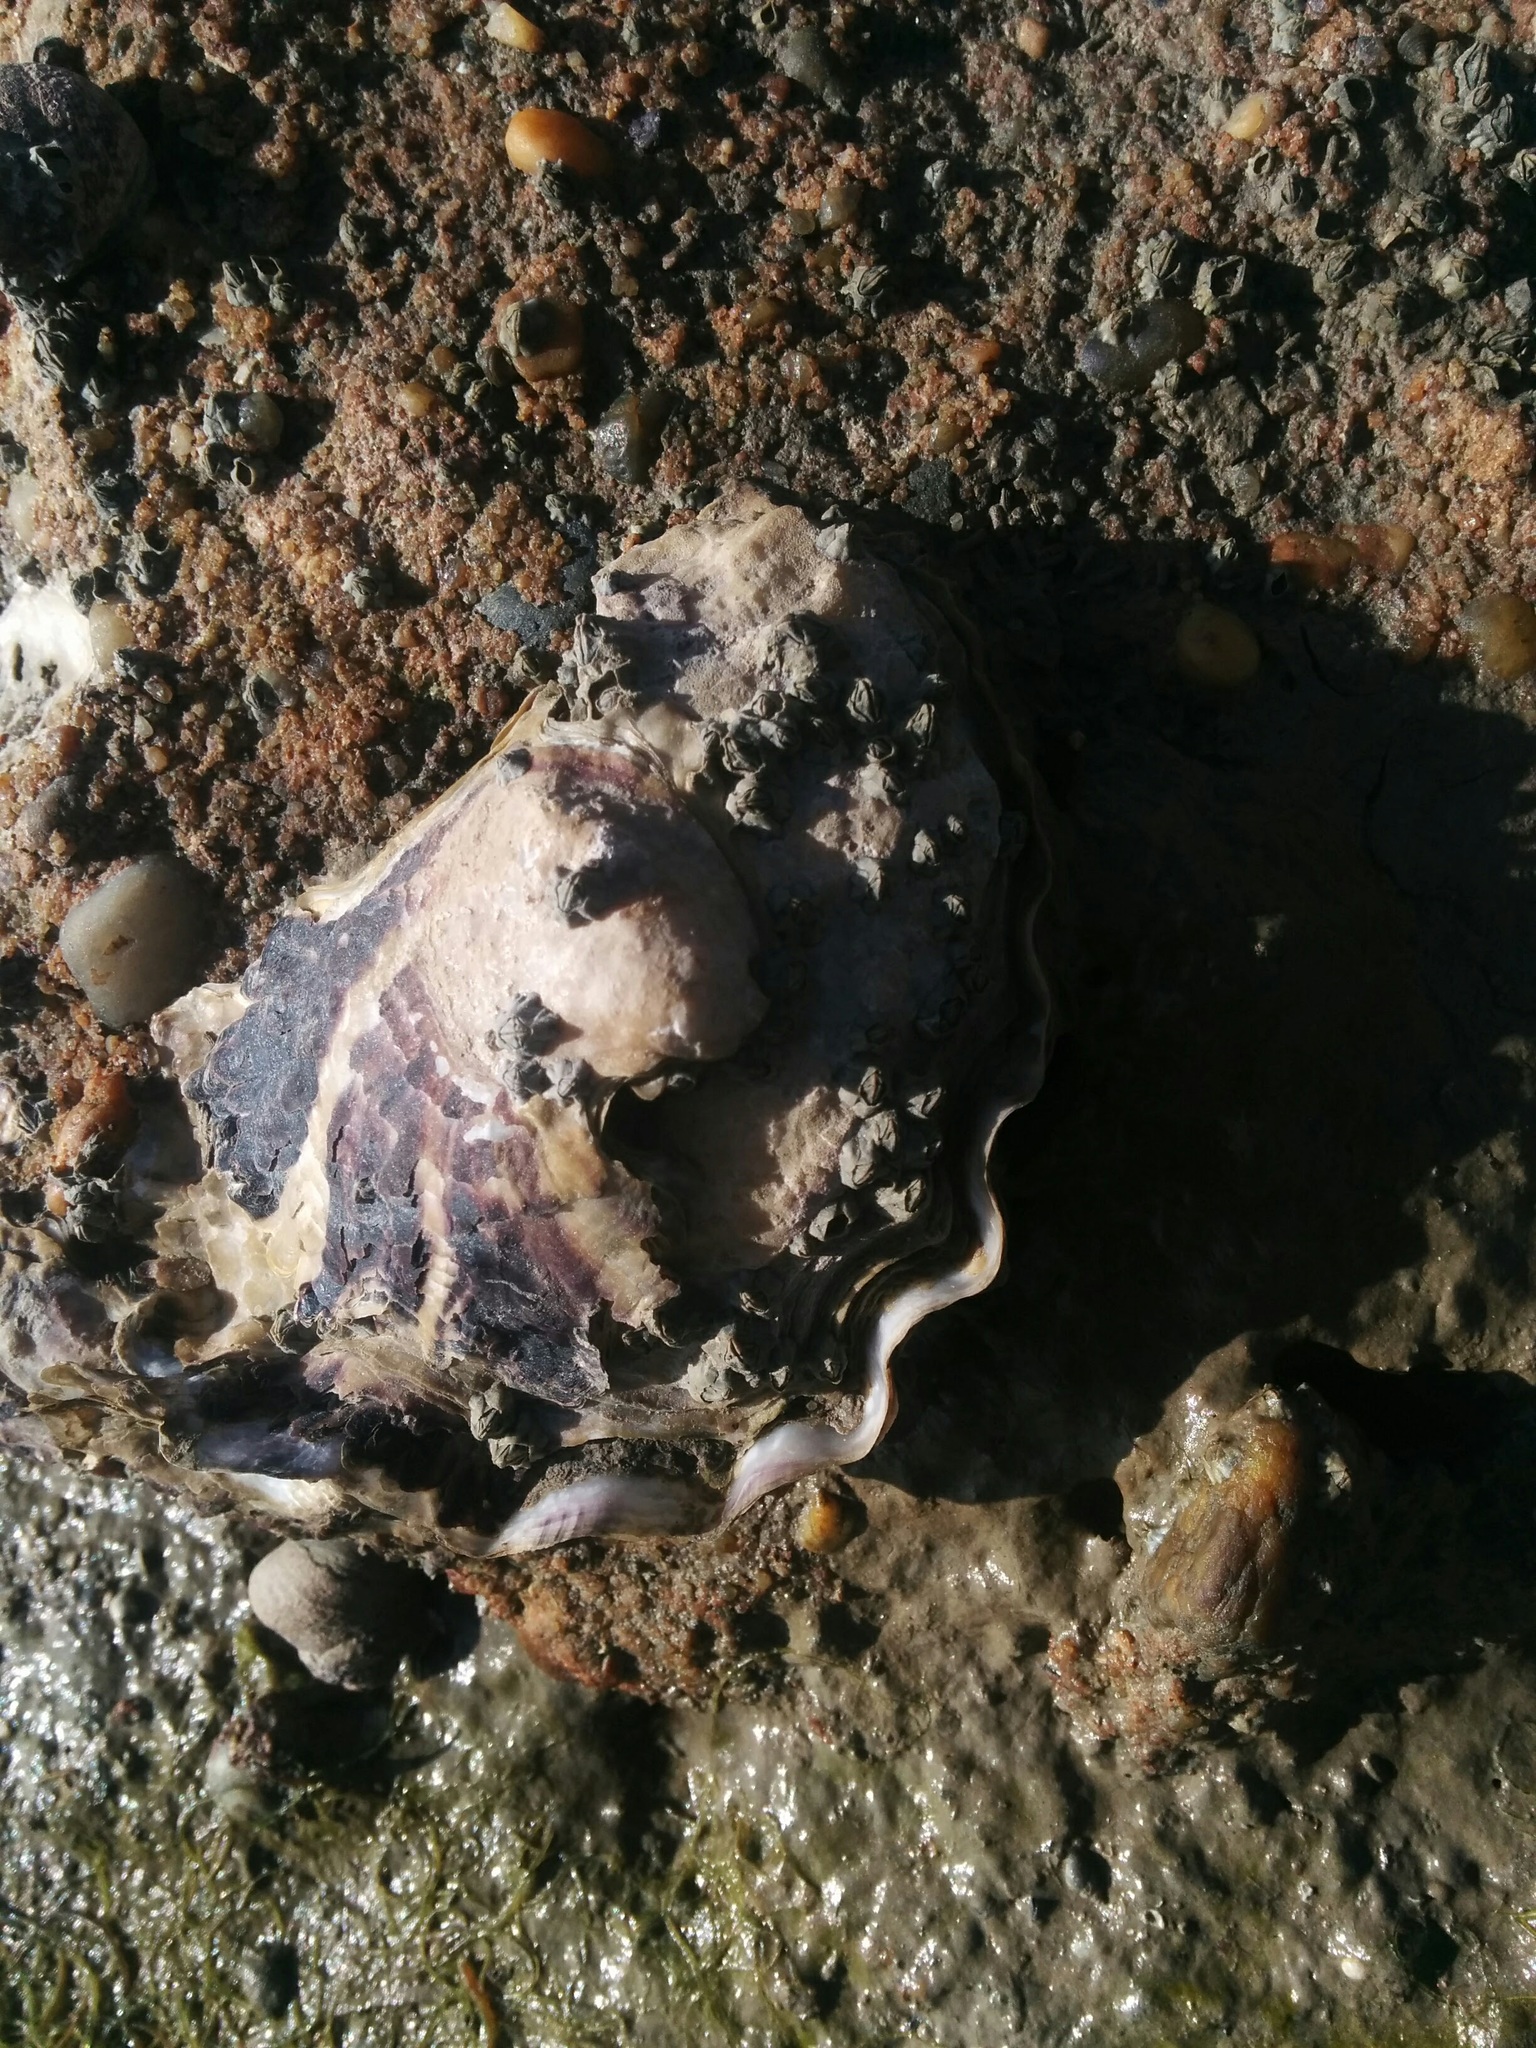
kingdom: Animalia
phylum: Mollusca
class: Bivalvia
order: Ostreida
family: Ostreidae
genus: Magallana
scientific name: Magallana gigas
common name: Pacific oyster
